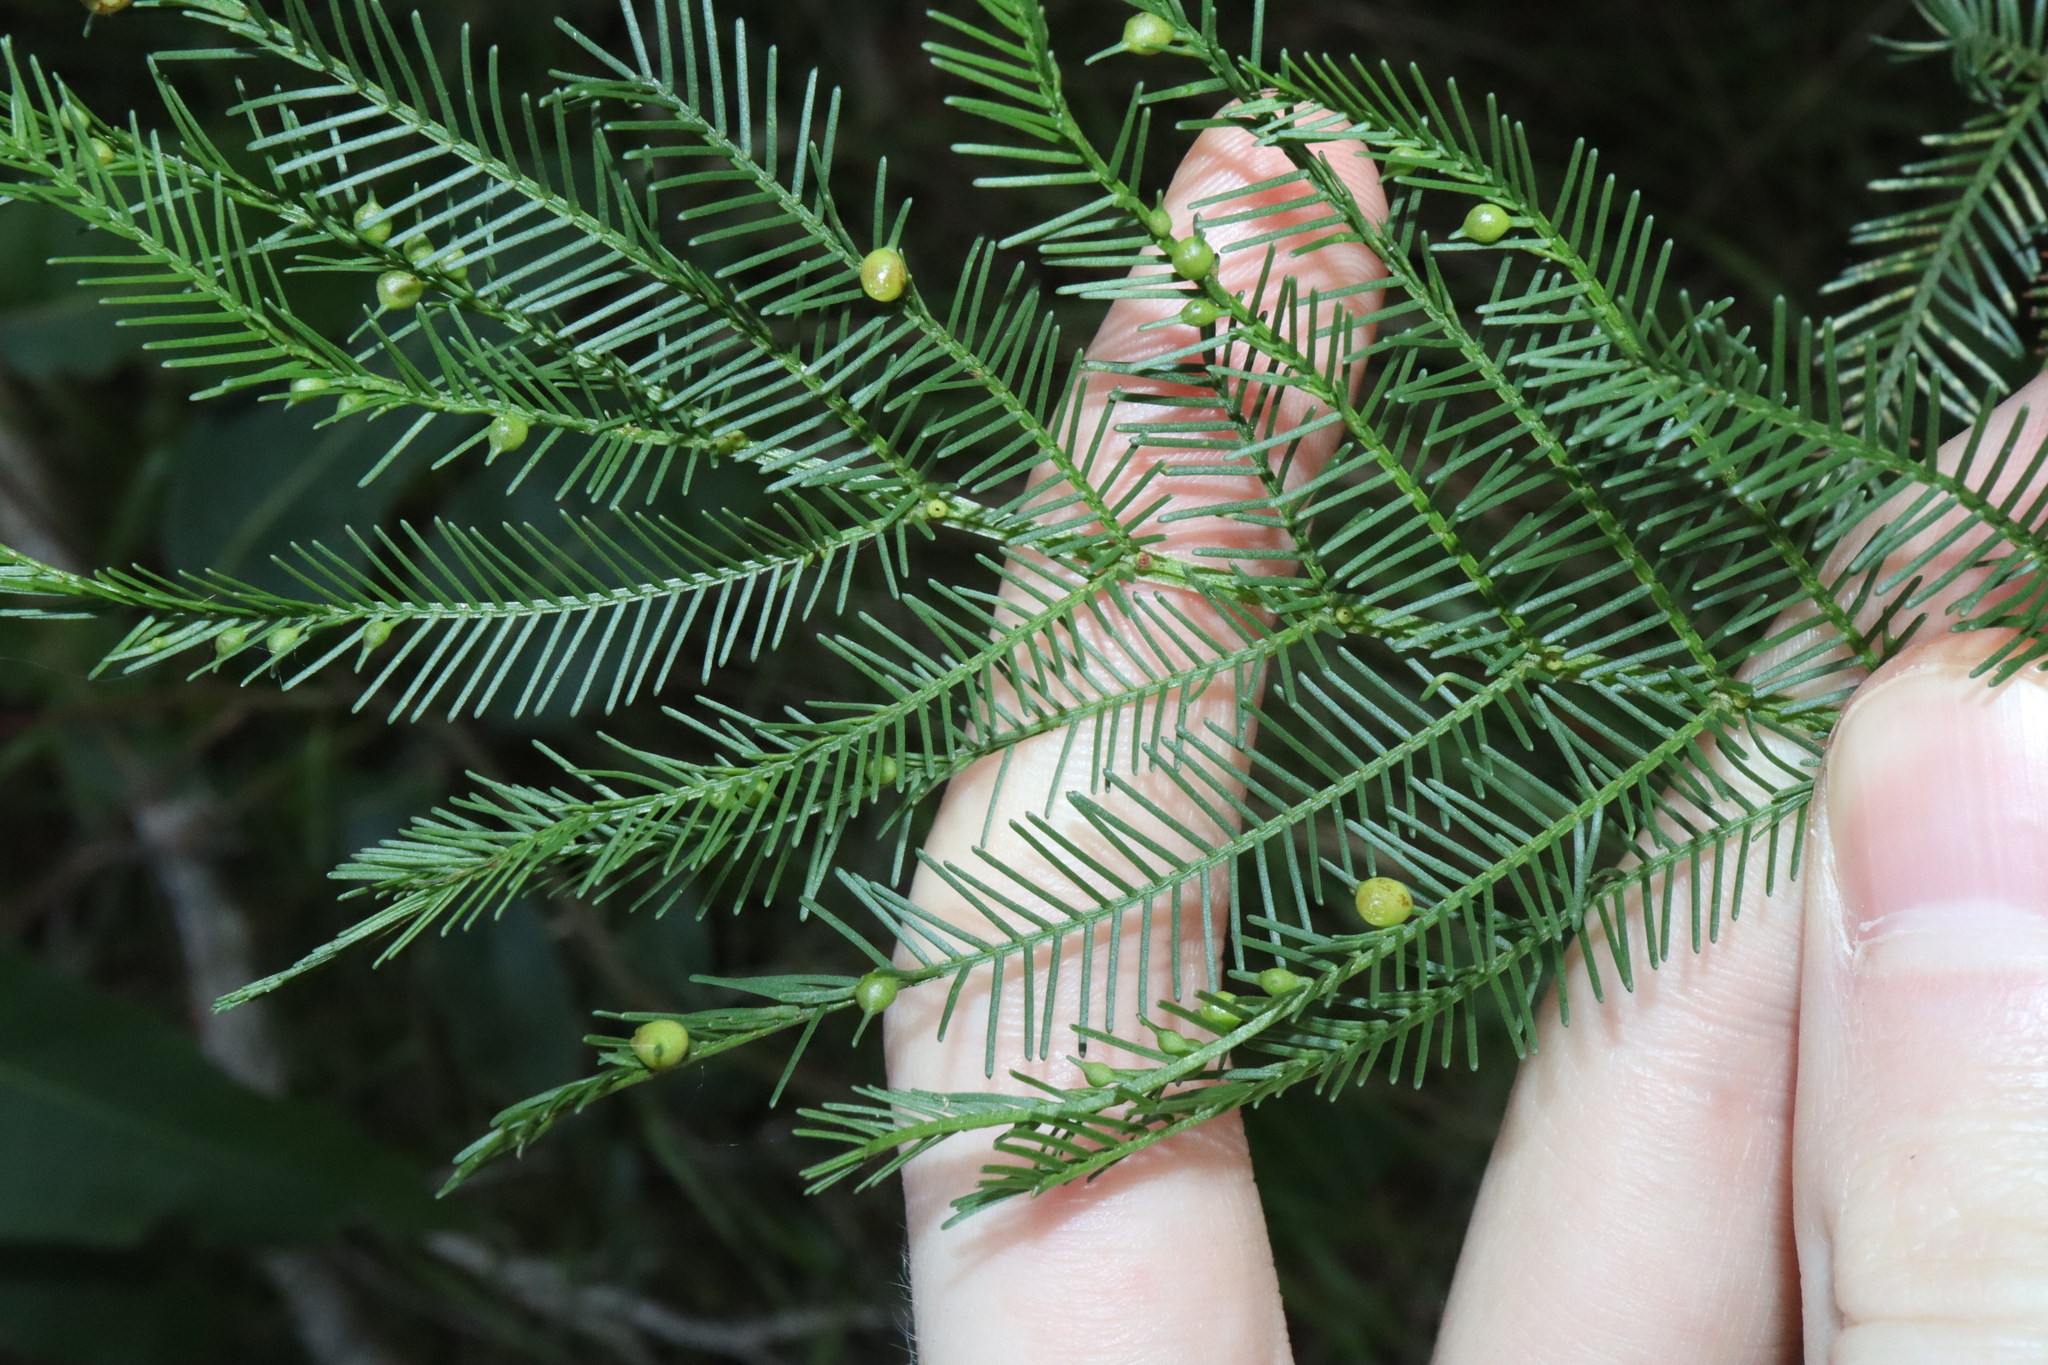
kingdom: Animalia
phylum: Arthropoda
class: Insecta
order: Diptera
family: Cecidomyiidae
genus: Austroacacidiplosis
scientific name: Austroacacidiplosis botrycephalae
